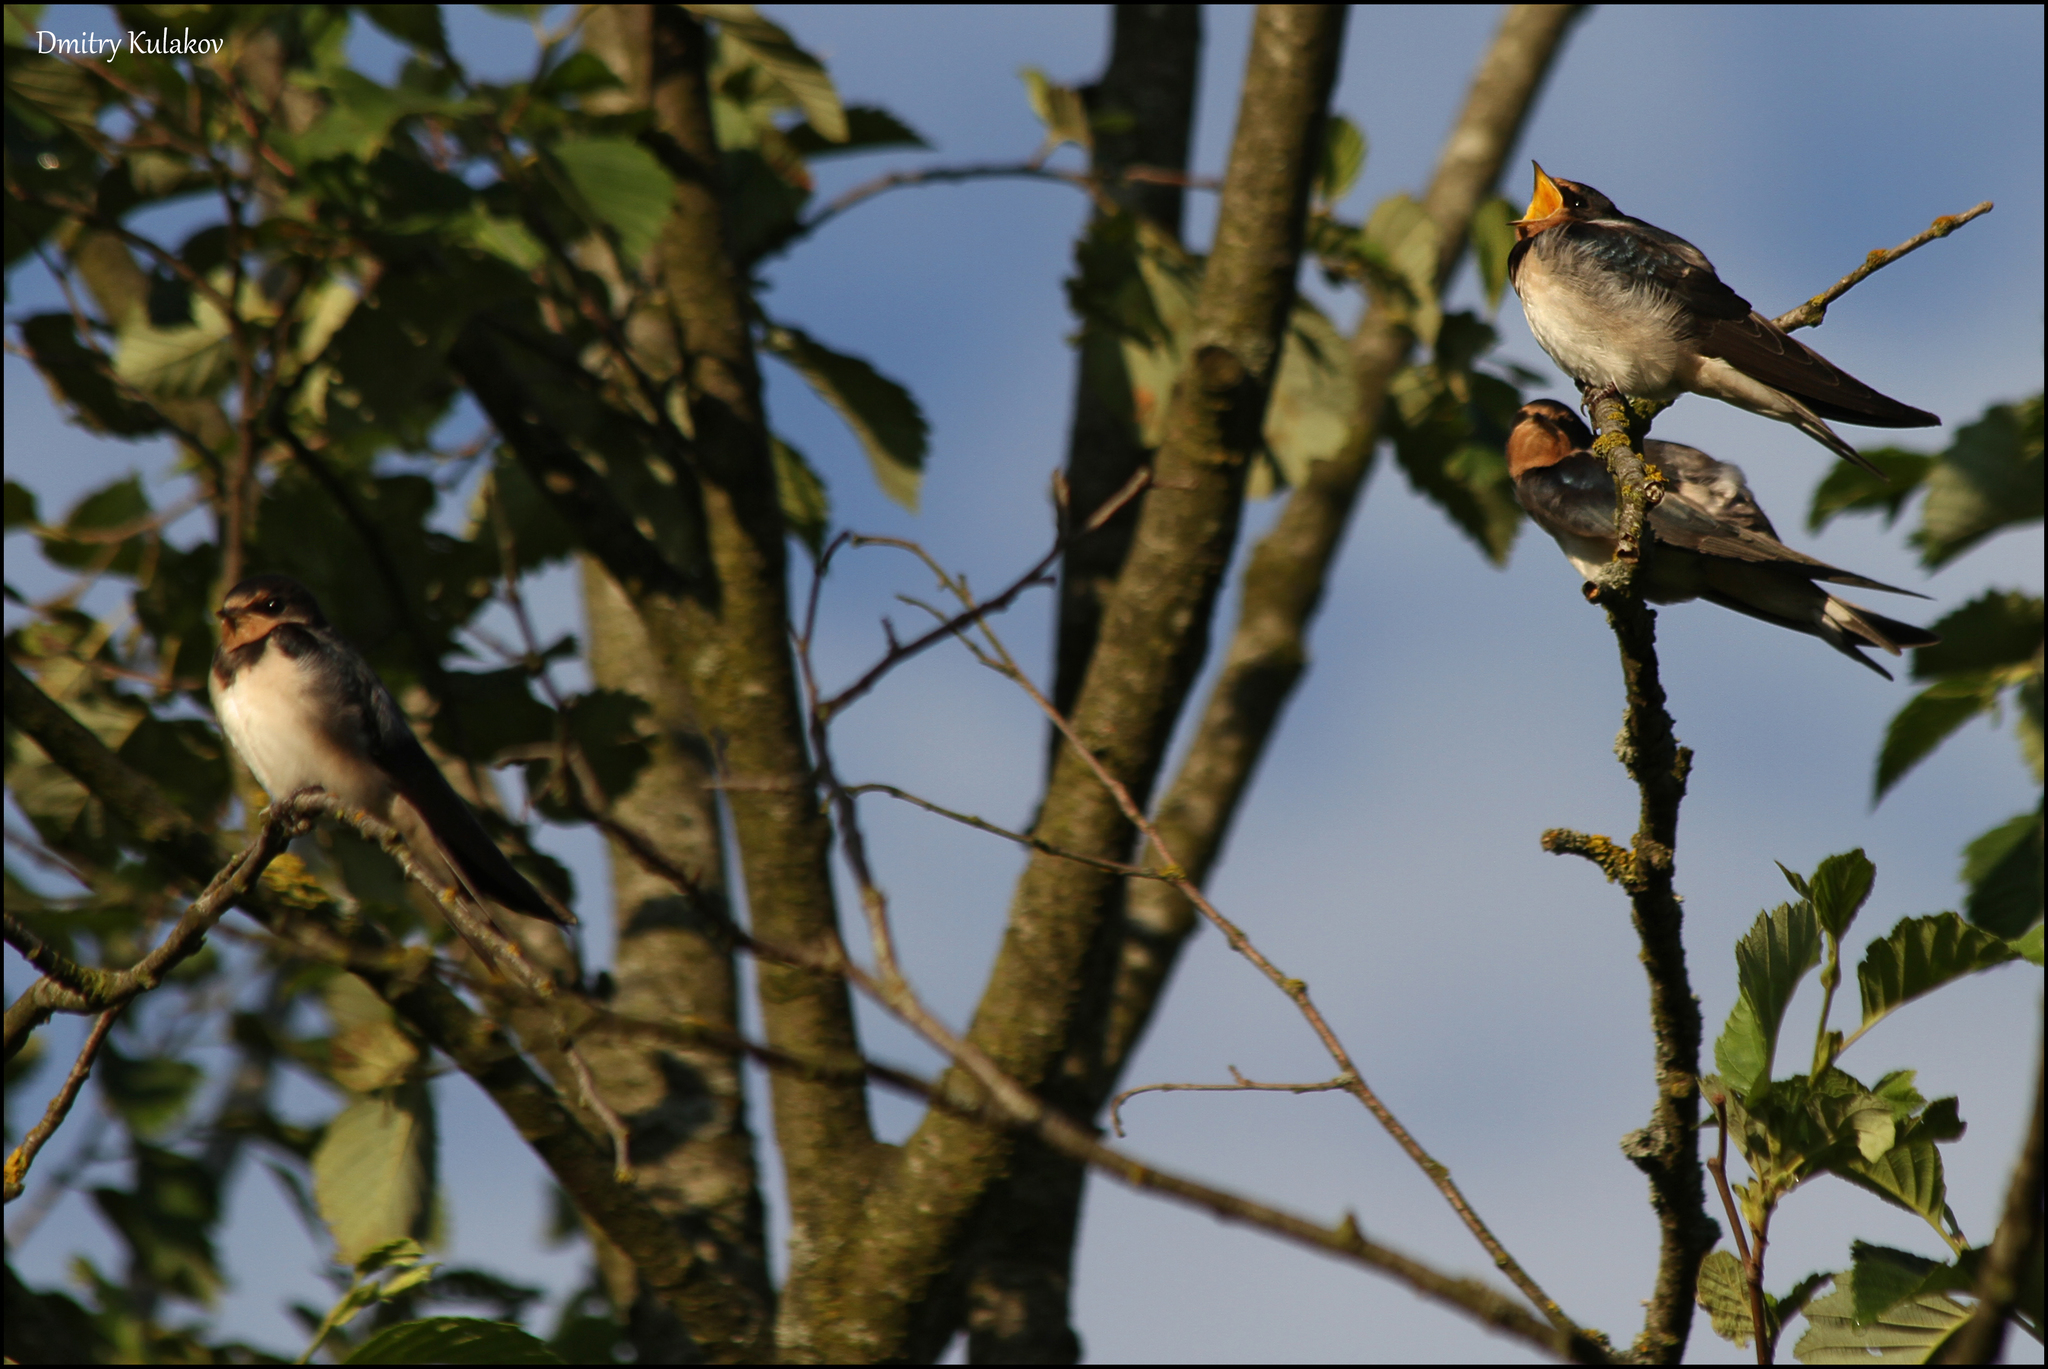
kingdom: Animalia
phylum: Chordata
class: Aves
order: Passeriformes
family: Hirundinidae
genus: Hirundo
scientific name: Hirundo rustica
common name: Barn swallow
